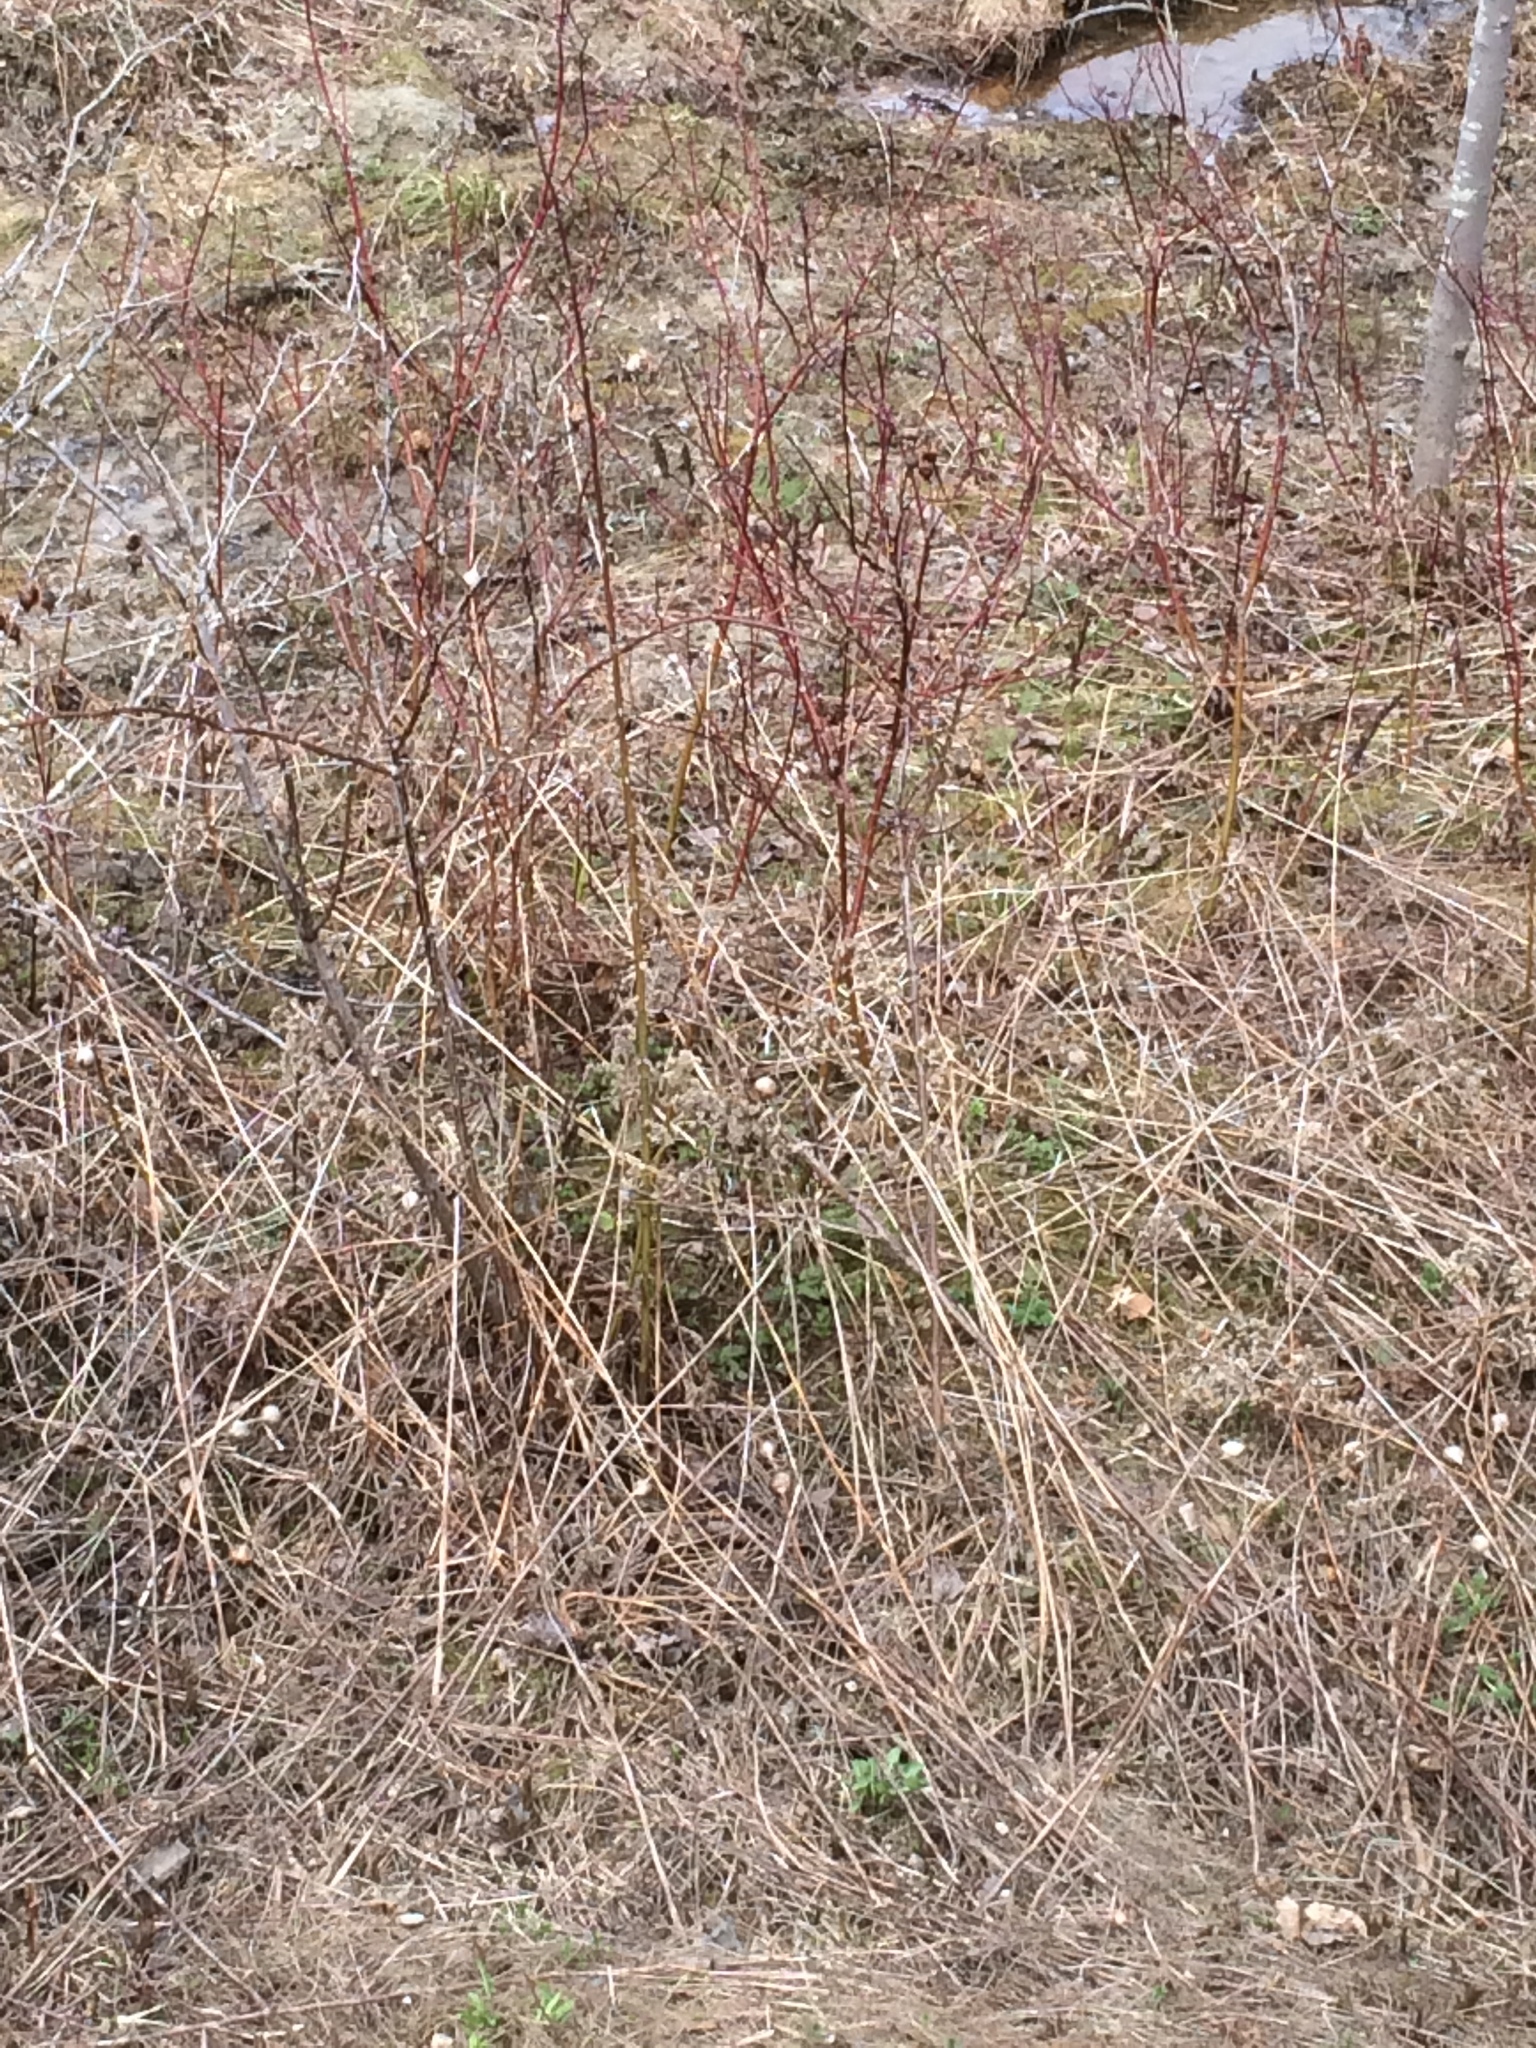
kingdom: Plantae
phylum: Tracheophyta
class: Magnoliopsida
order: Cornales
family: Cornaceae
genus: Cornus
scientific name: Cornus sericea
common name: Red-osier dogwood
